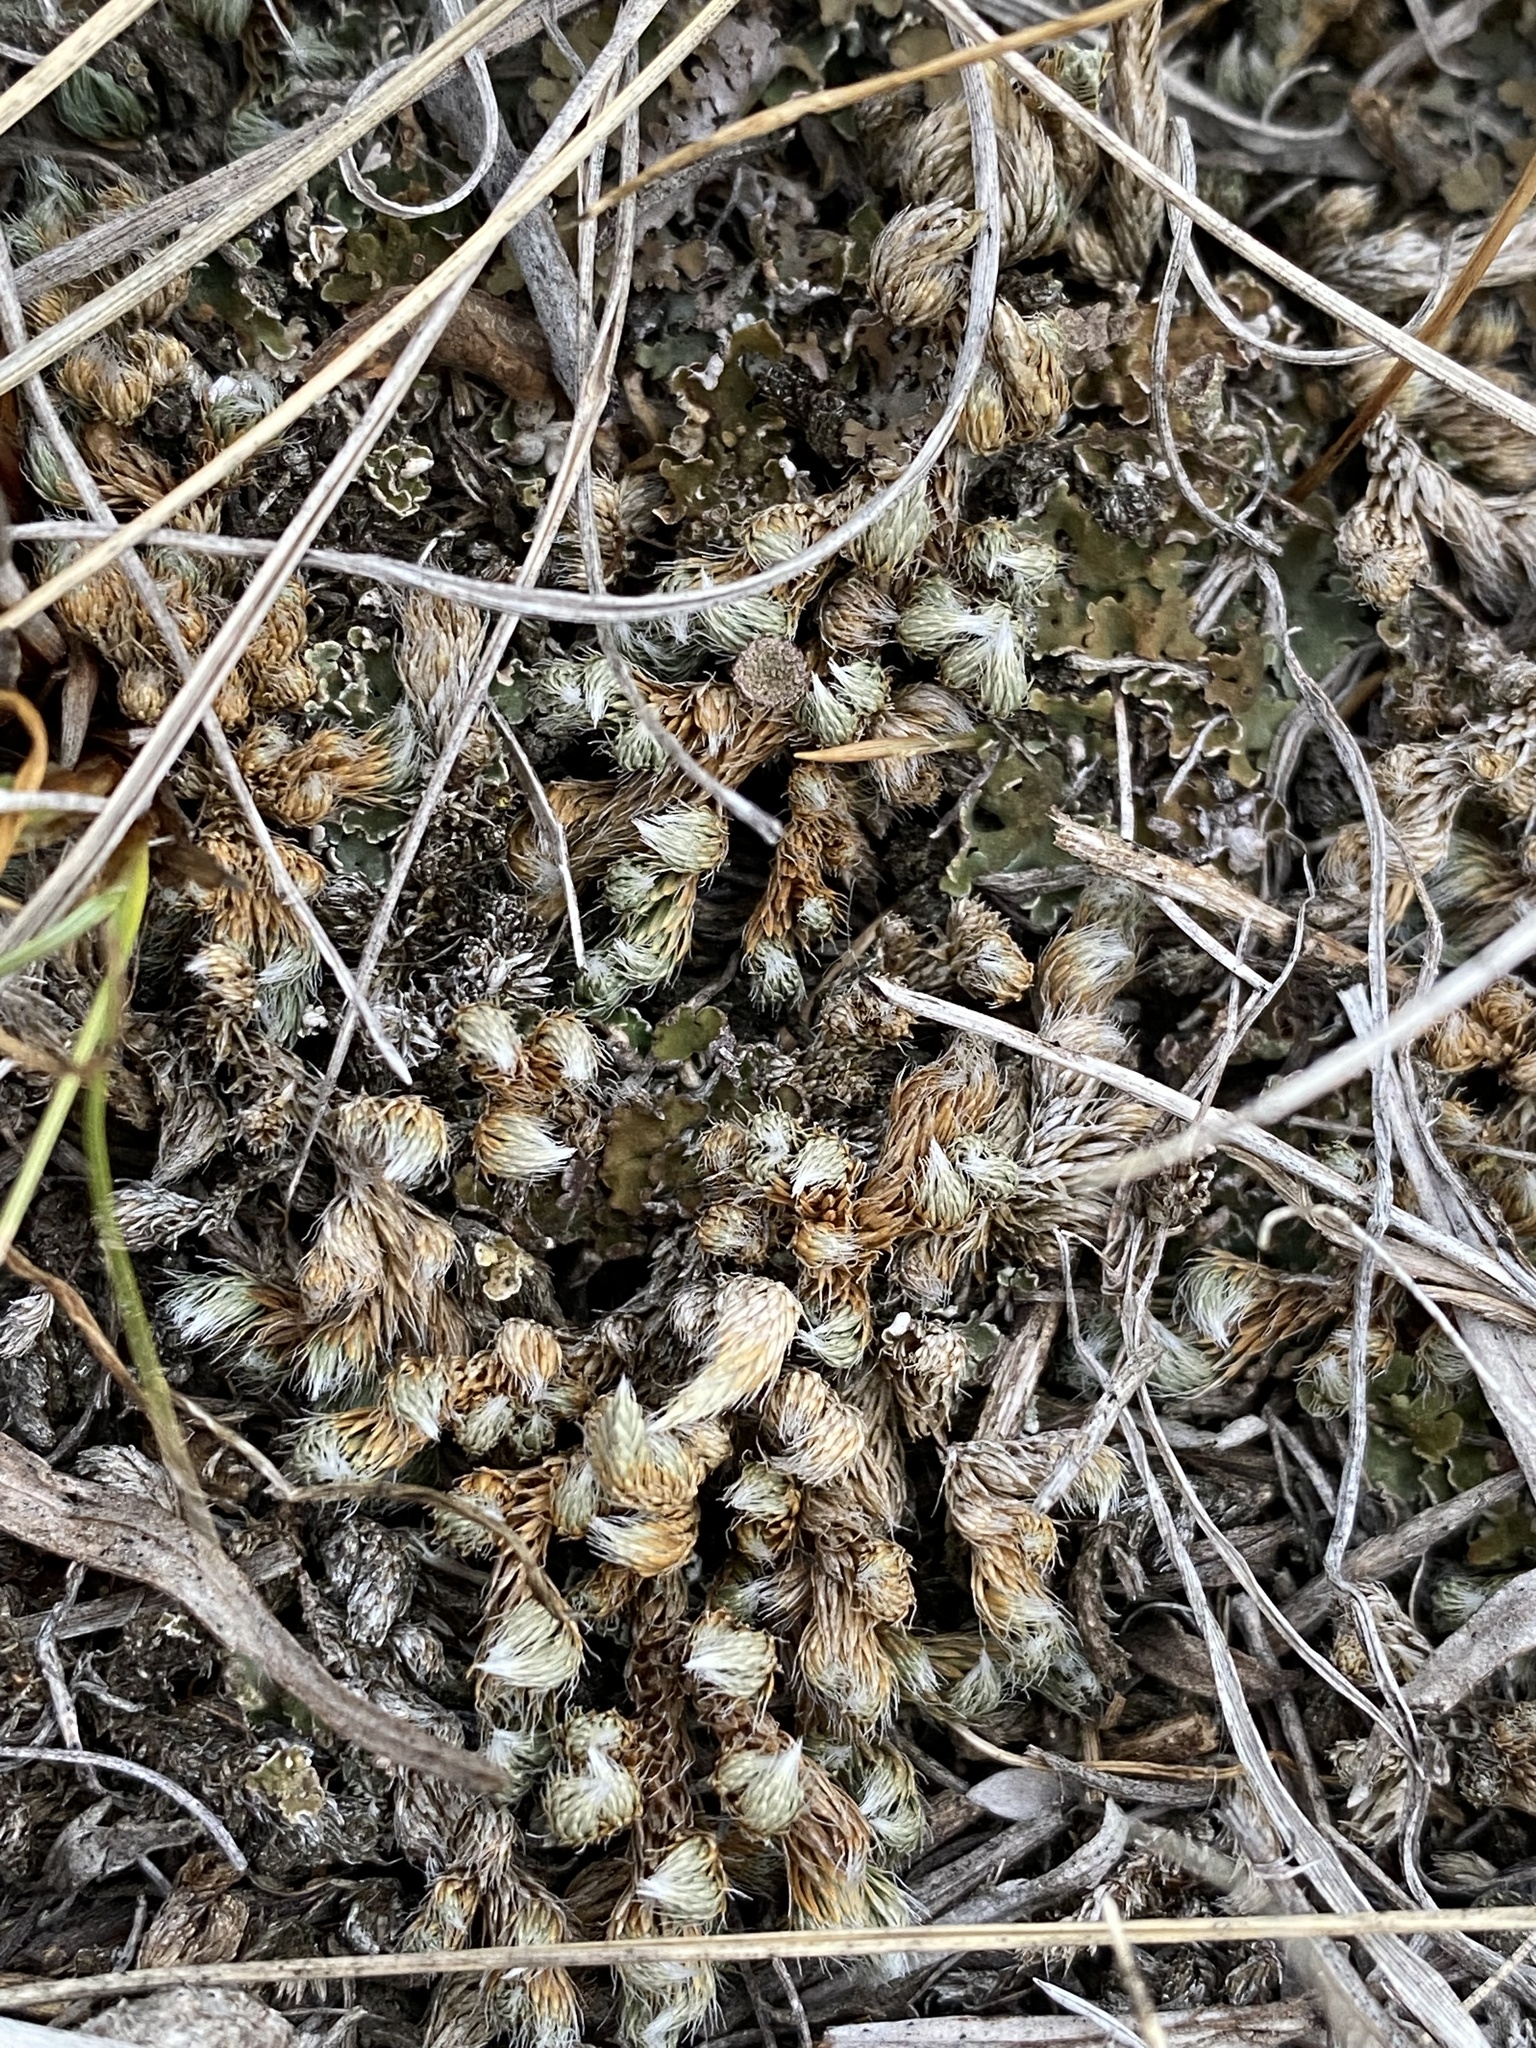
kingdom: Plantae
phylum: Tracheophyta
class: Lycopodiopsida
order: Selaginellales
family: Selaginellaceae
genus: Selaginella
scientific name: Selaginella densa
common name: Mountain spike-moss
